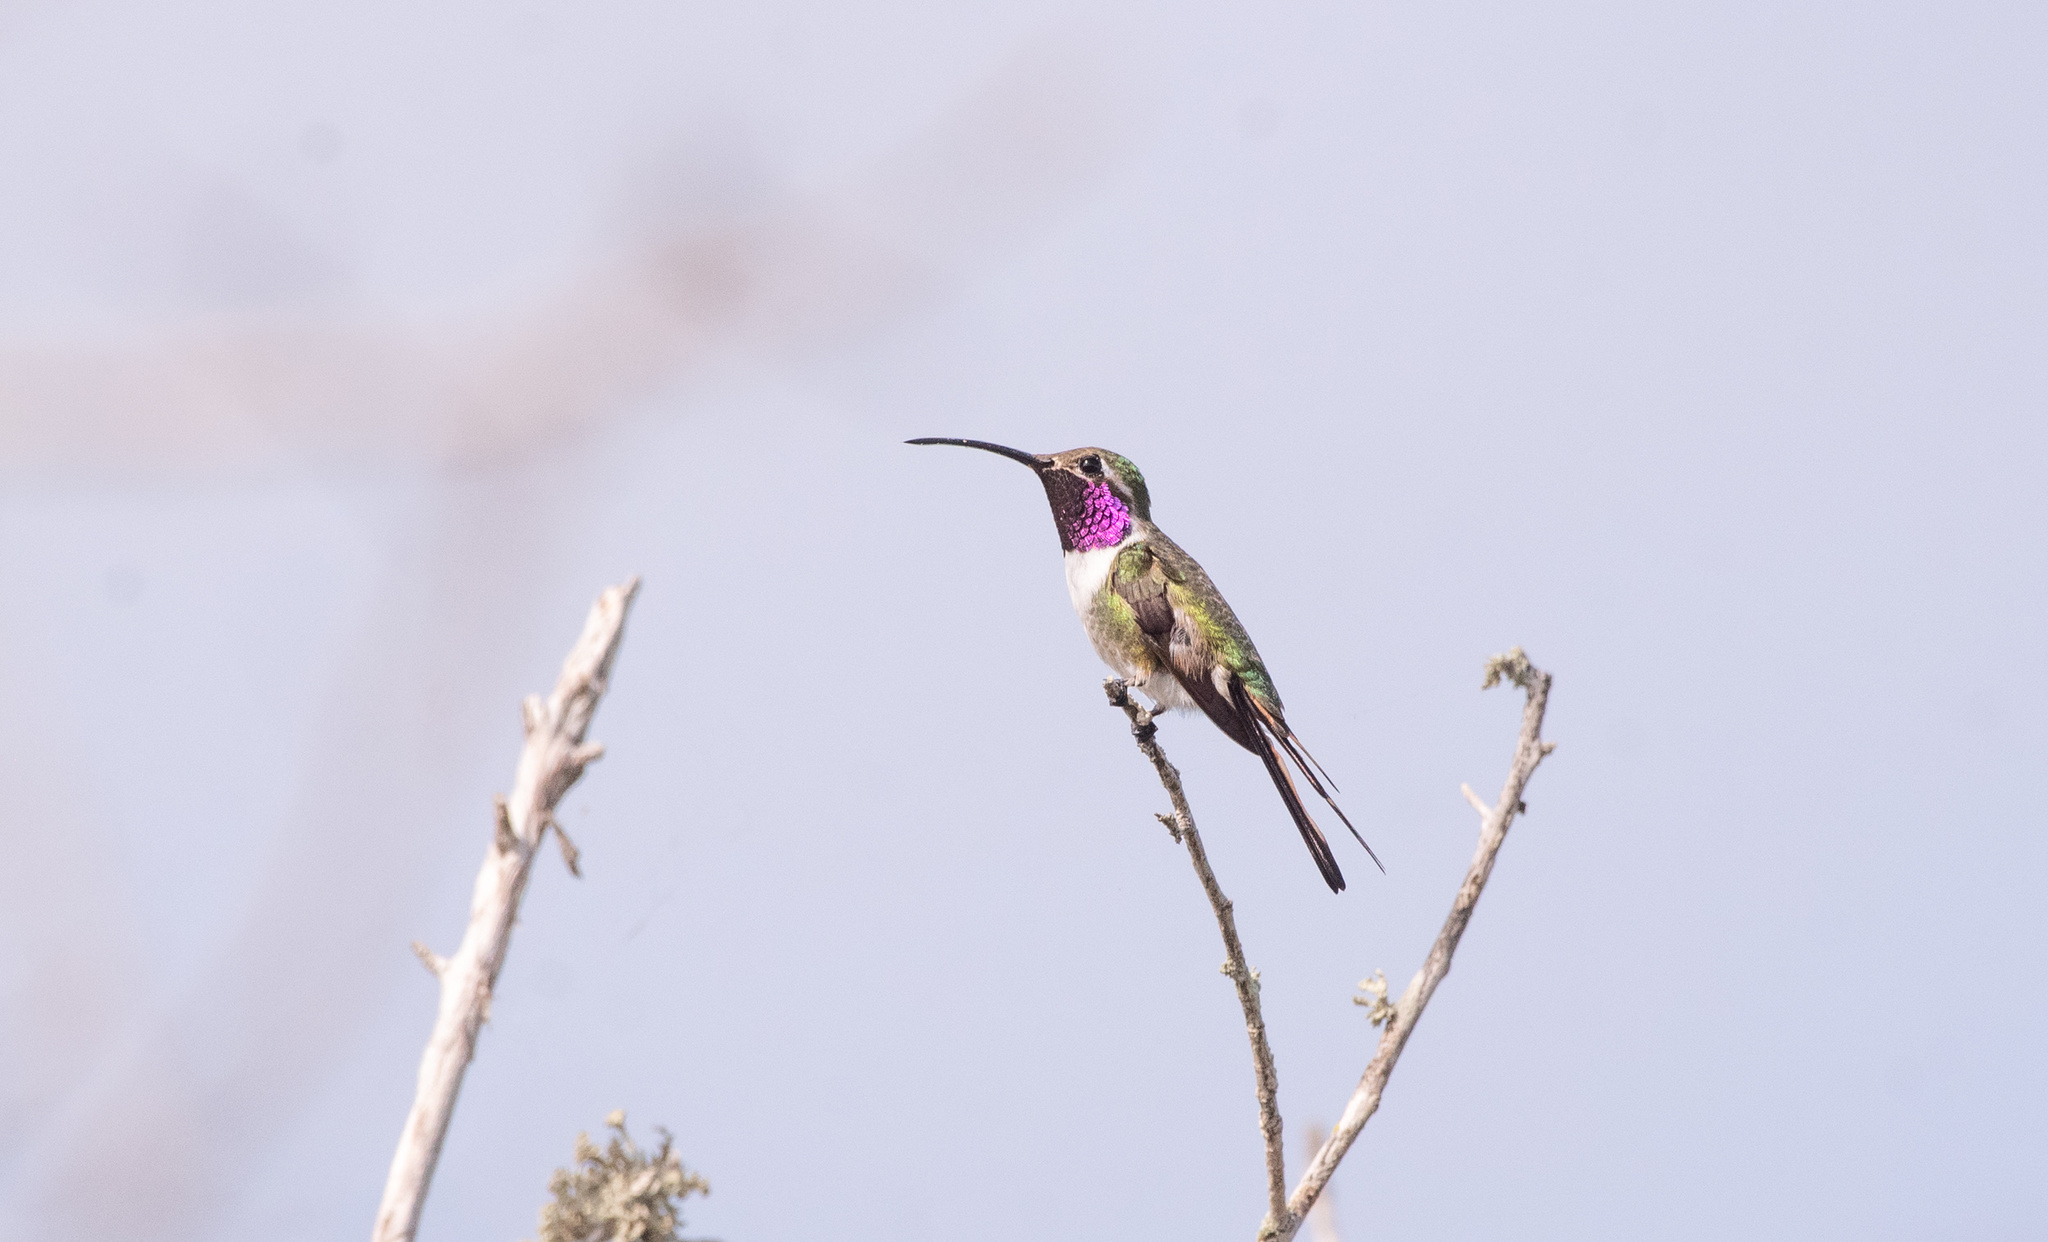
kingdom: Animalia
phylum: Chordata
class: Aves
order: Apodiformes
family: Trochilidae
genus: Doricha
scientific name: Doricha eliza
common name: Mexican sheartail
